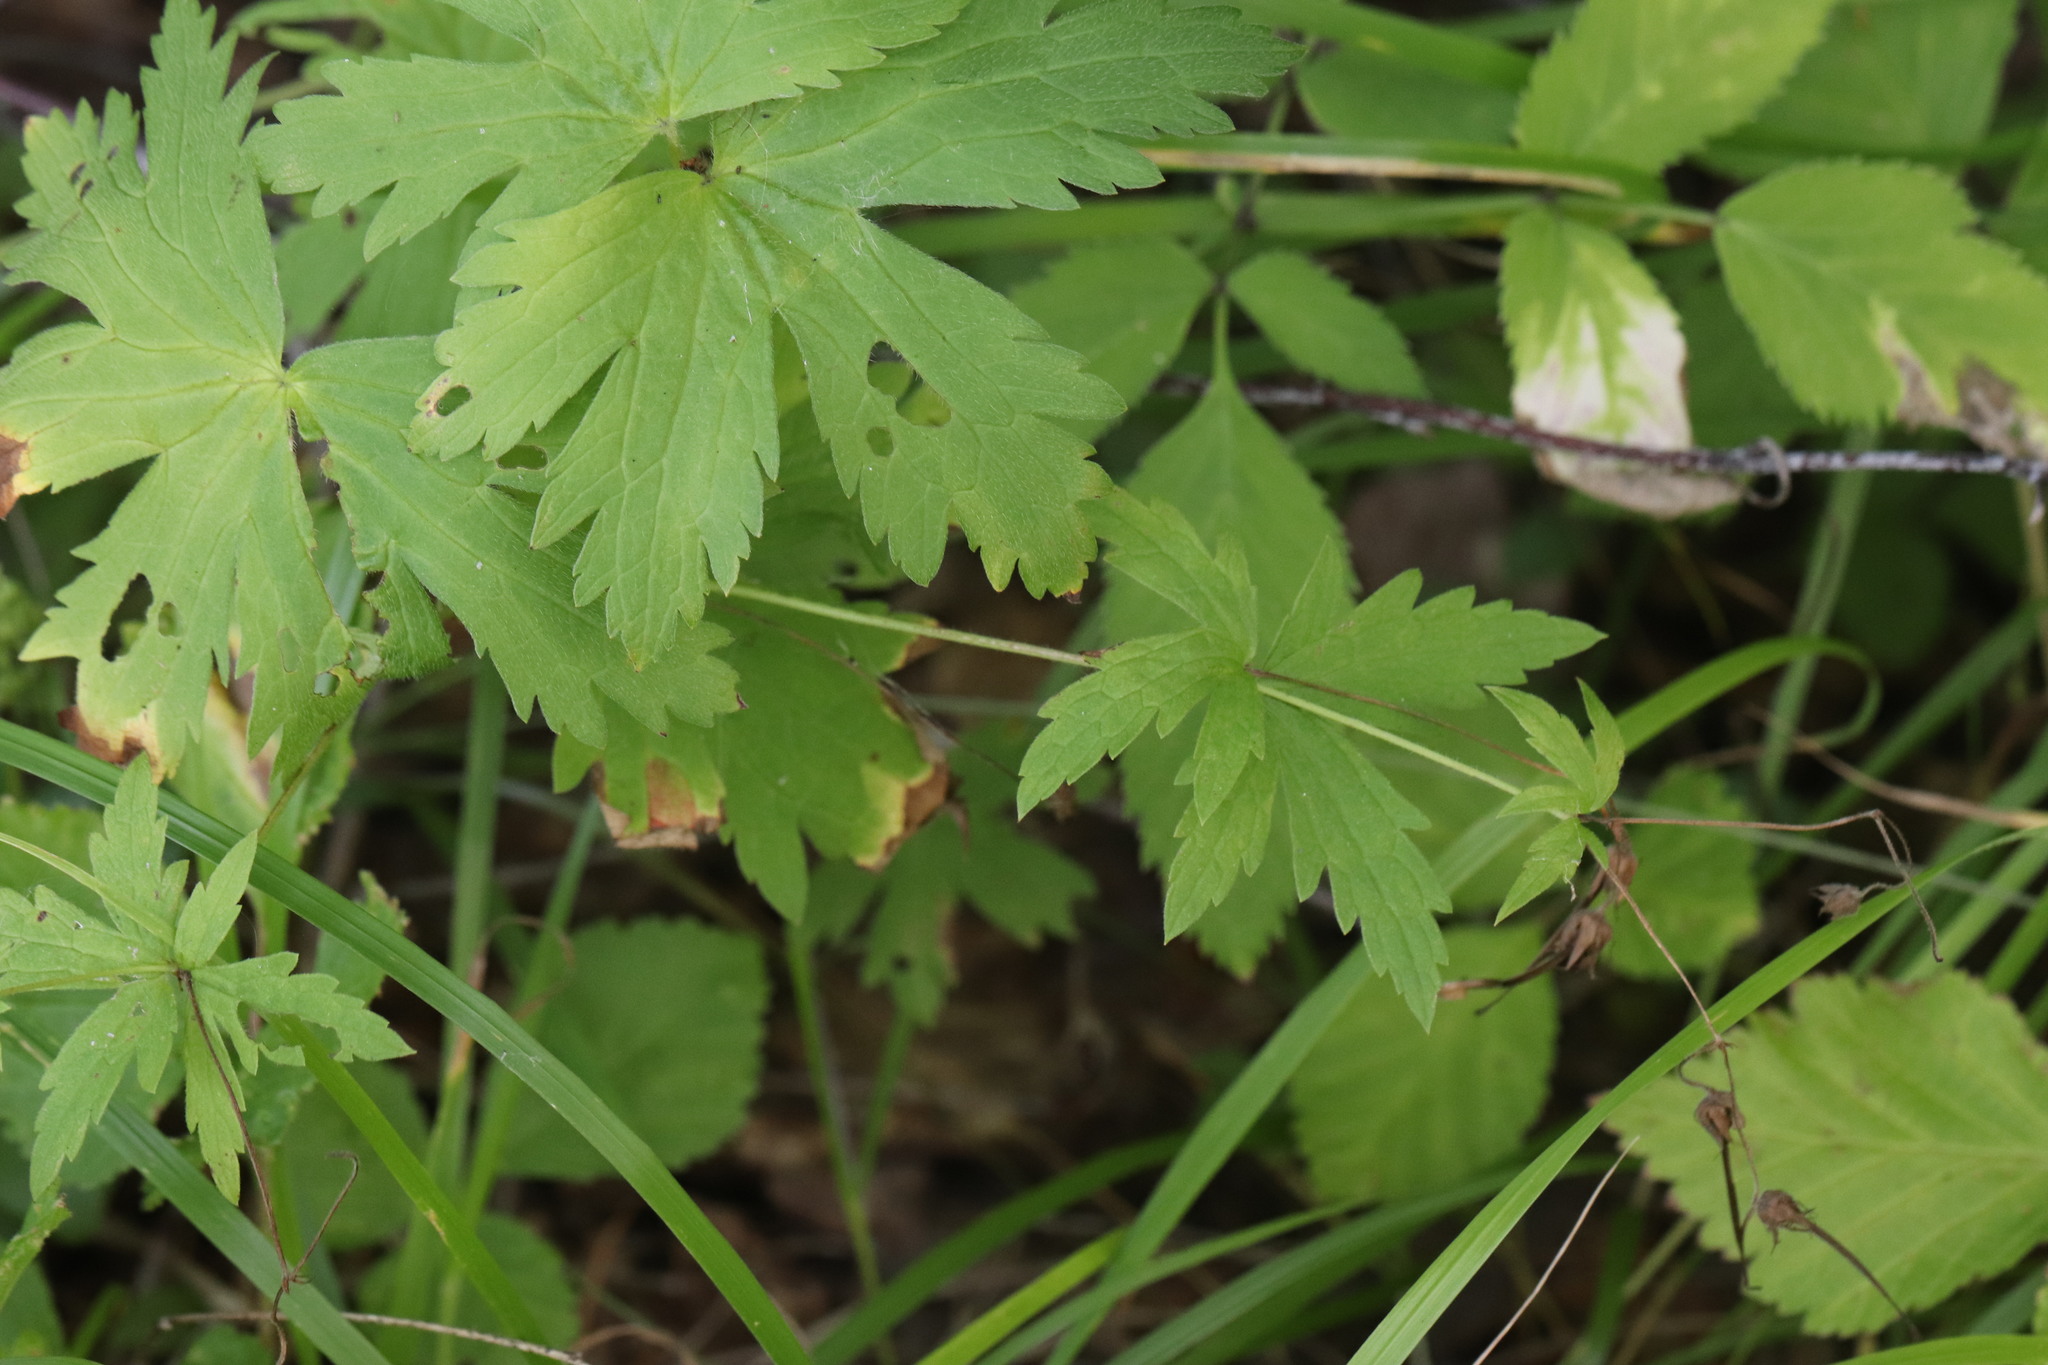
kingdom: Plantae
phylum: Tracheophyta
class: Magnoliopsida
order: Geraniales
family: Geraniaceae
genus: Geranium
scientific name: Geranium sylvaticum
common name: Wood crane's-bill
